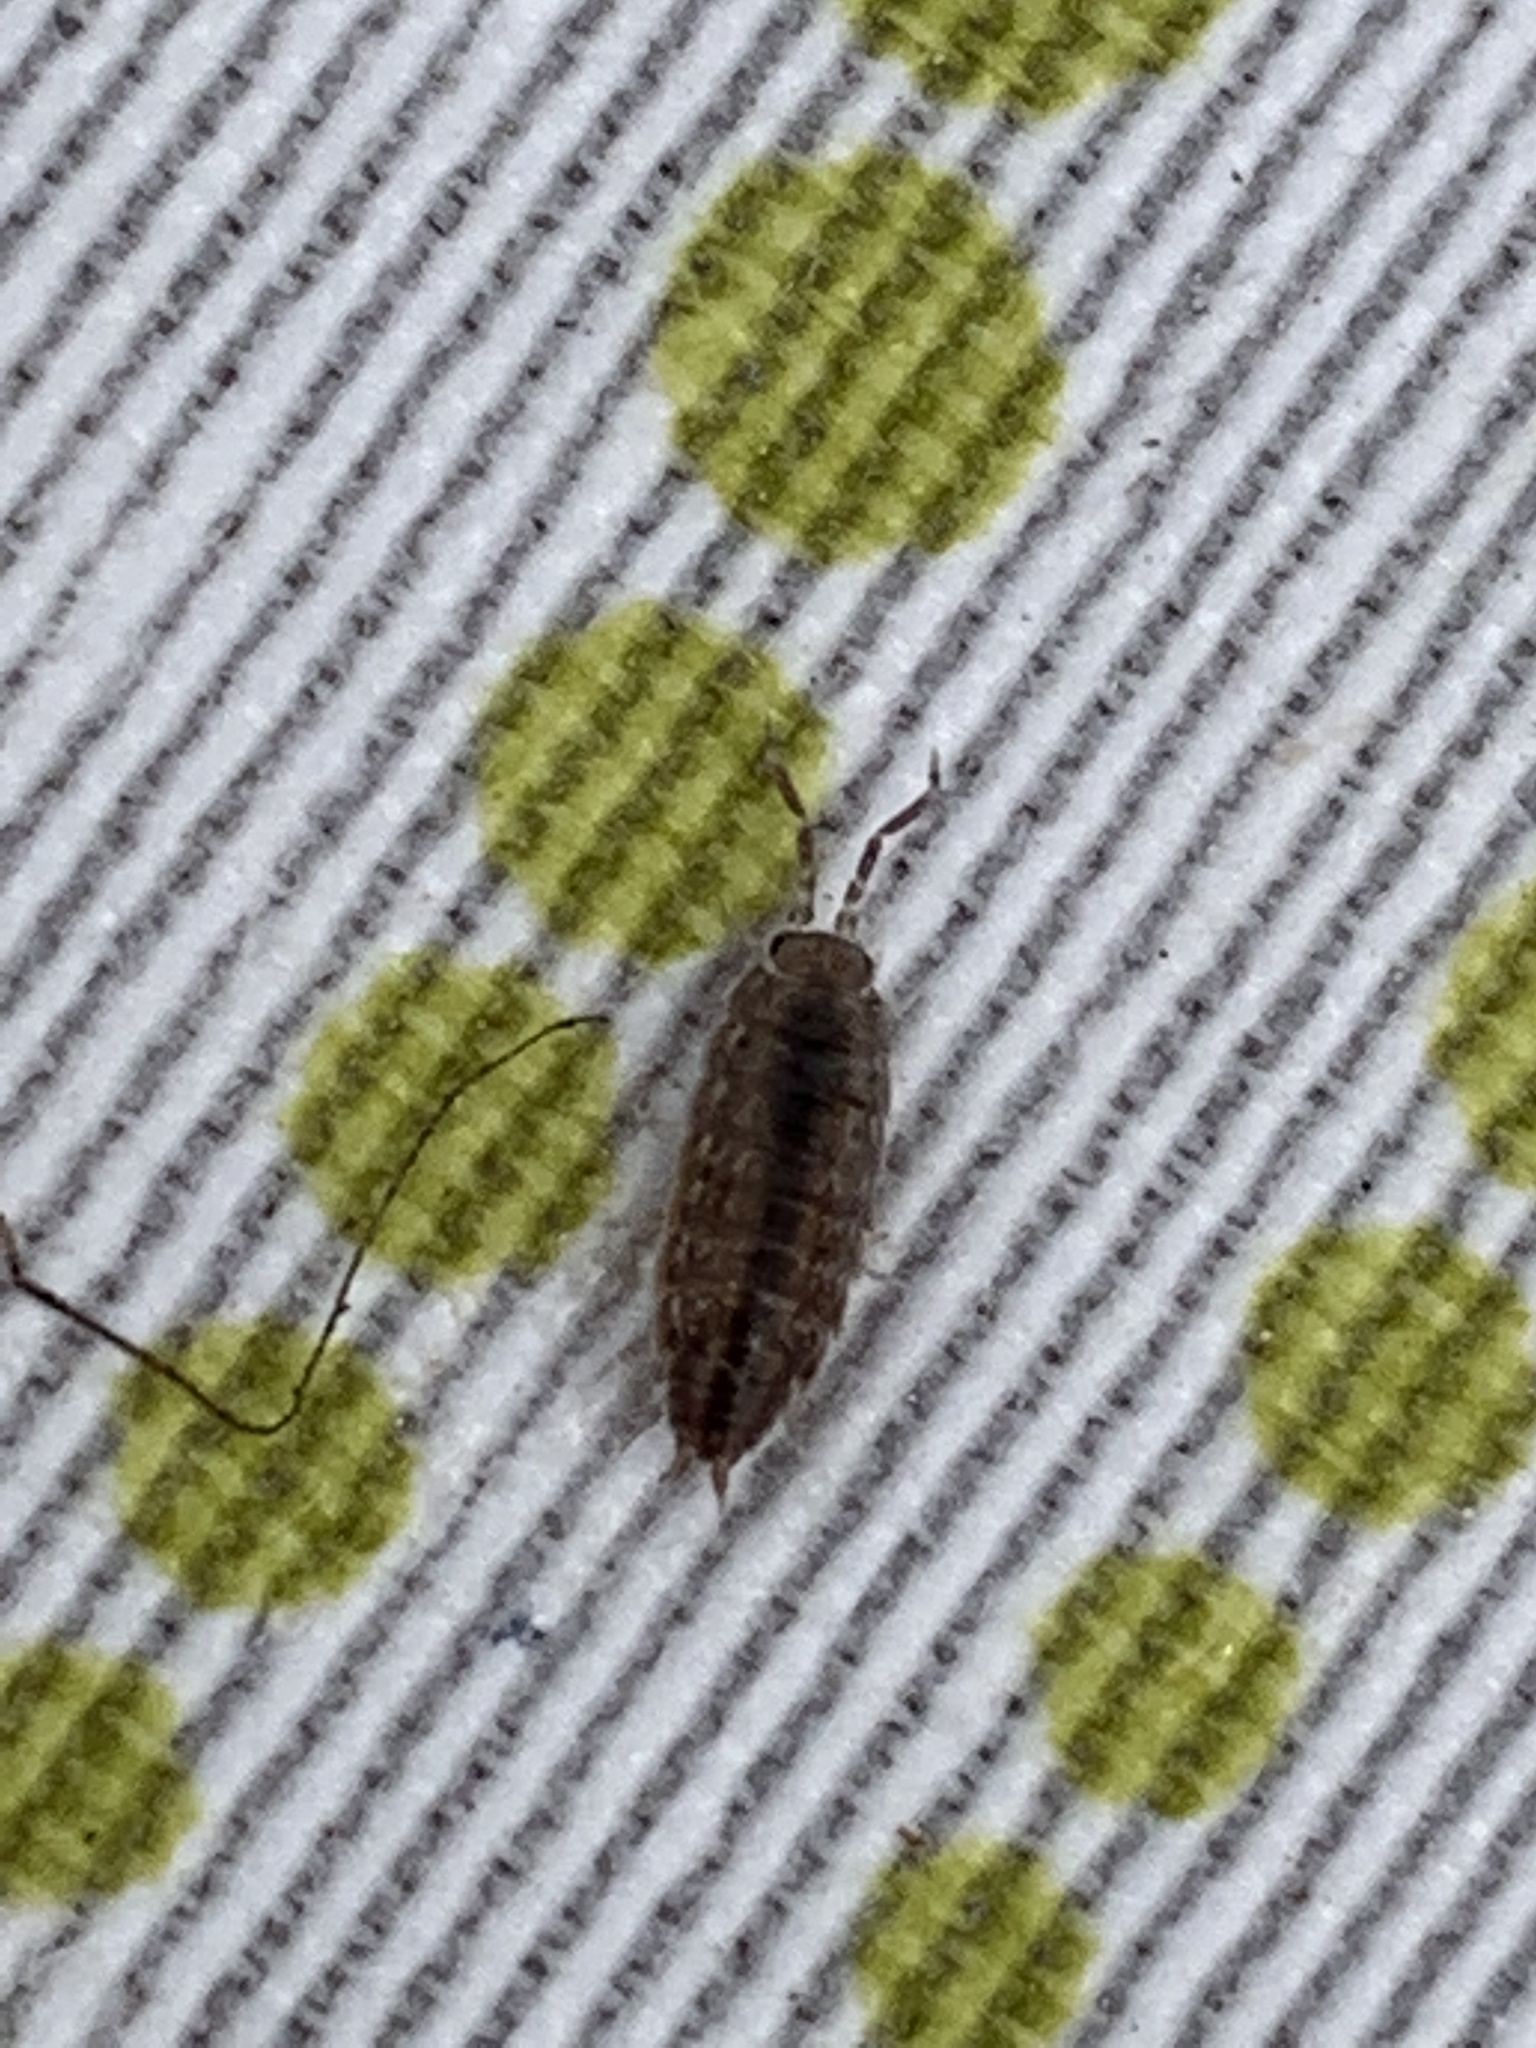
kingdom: Animalia
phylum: Arthropoda
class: Malacostraca
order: Isopoda
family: Agnaridae
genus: Orthometopon
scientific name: Orthometopon planum
